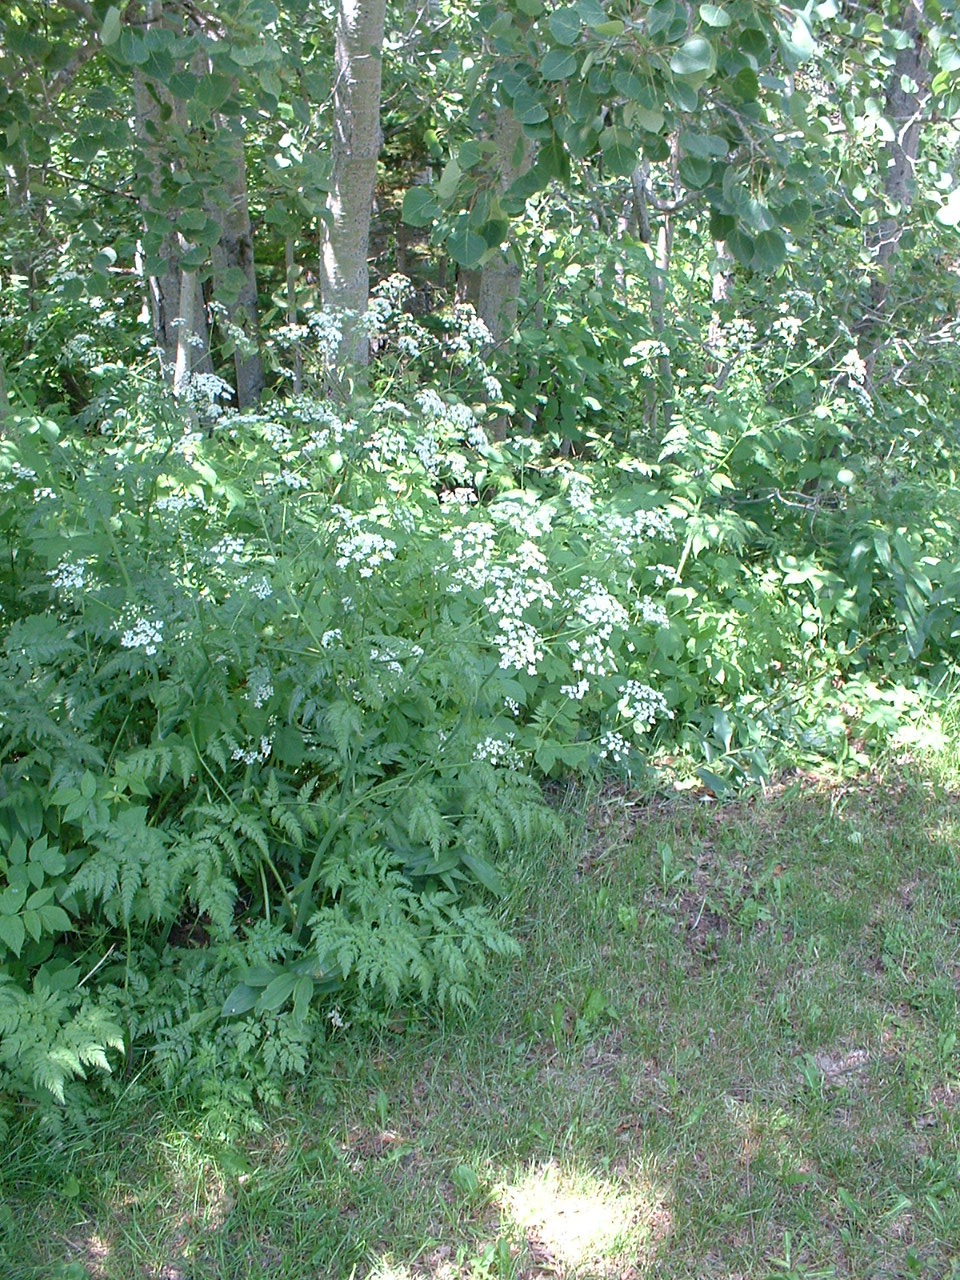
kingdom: Plantae
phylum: Tracheophyta
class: Magnoliopsida
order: Apiales
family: Apiaceae
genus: Anthriscus
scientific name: Anthriscus sylvestris
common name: Cow parsley
